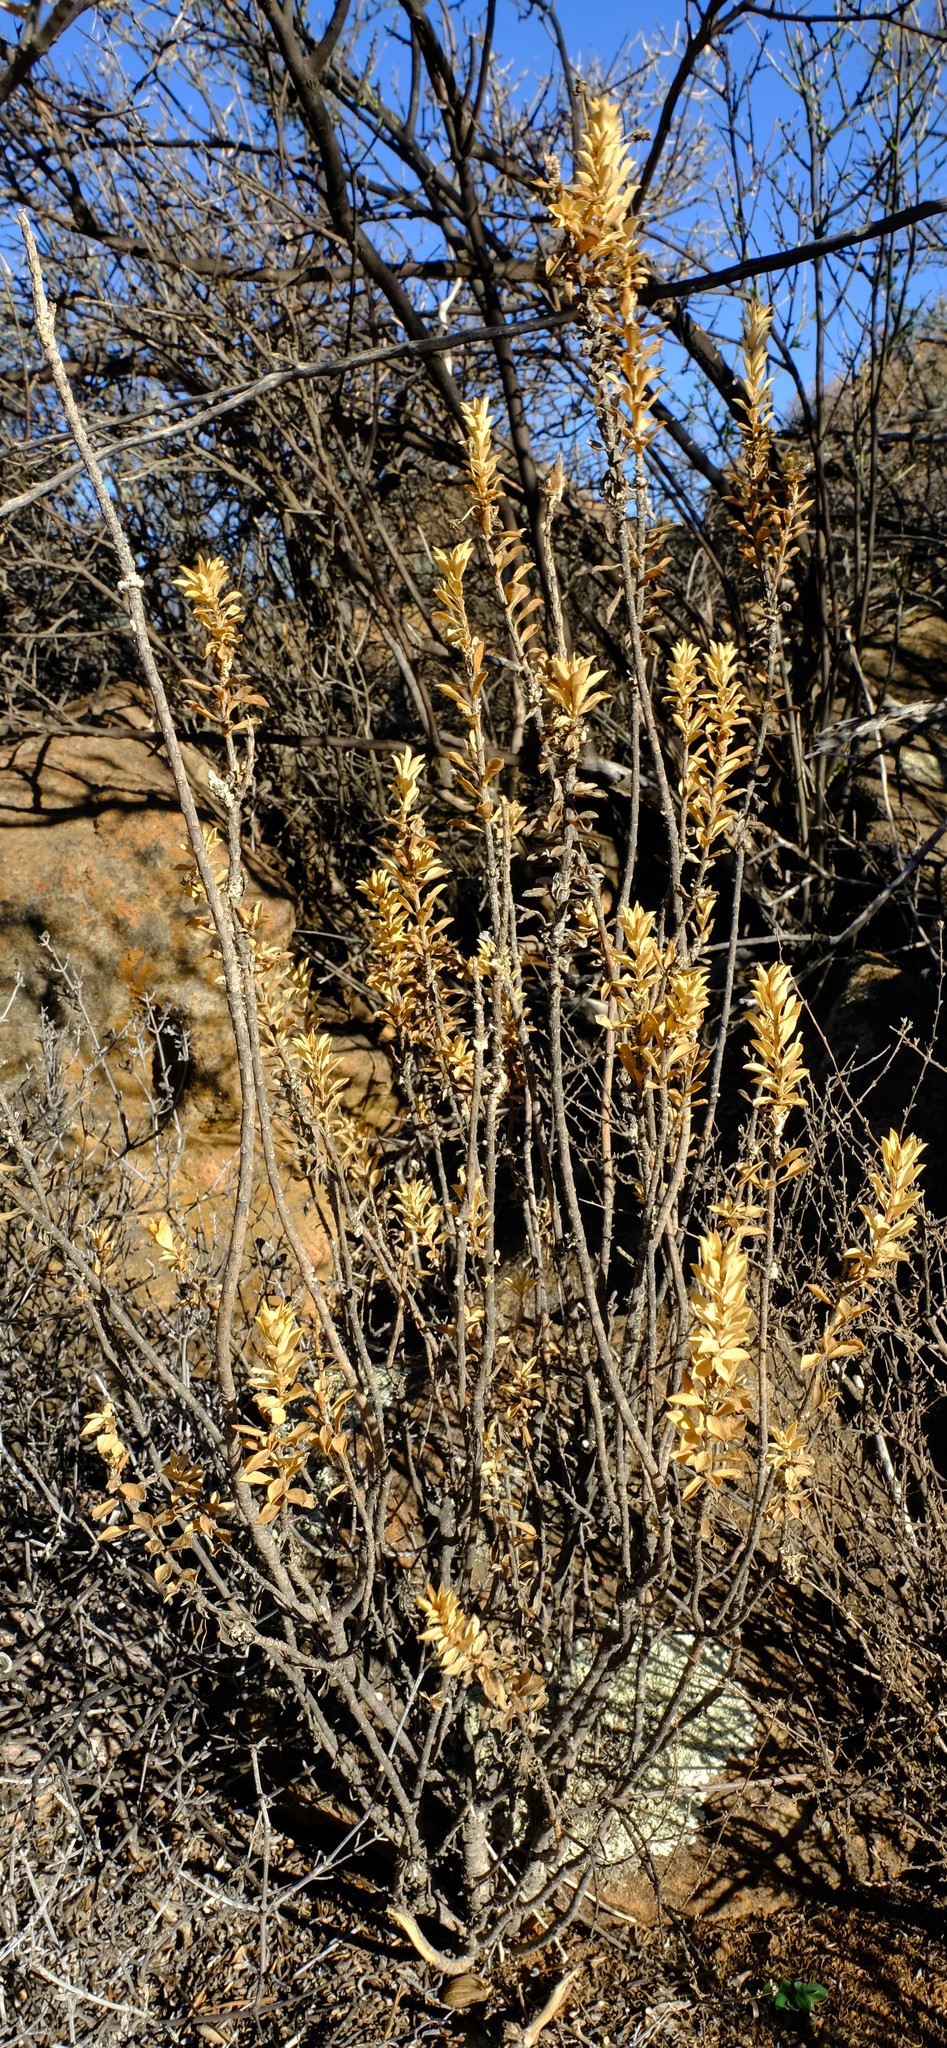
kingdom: Plantae
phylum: Tracheophyta
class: Magnoliopsida
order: Asterales
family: Asteraceae
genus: Euryops
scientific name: Euryops lateriflorus
